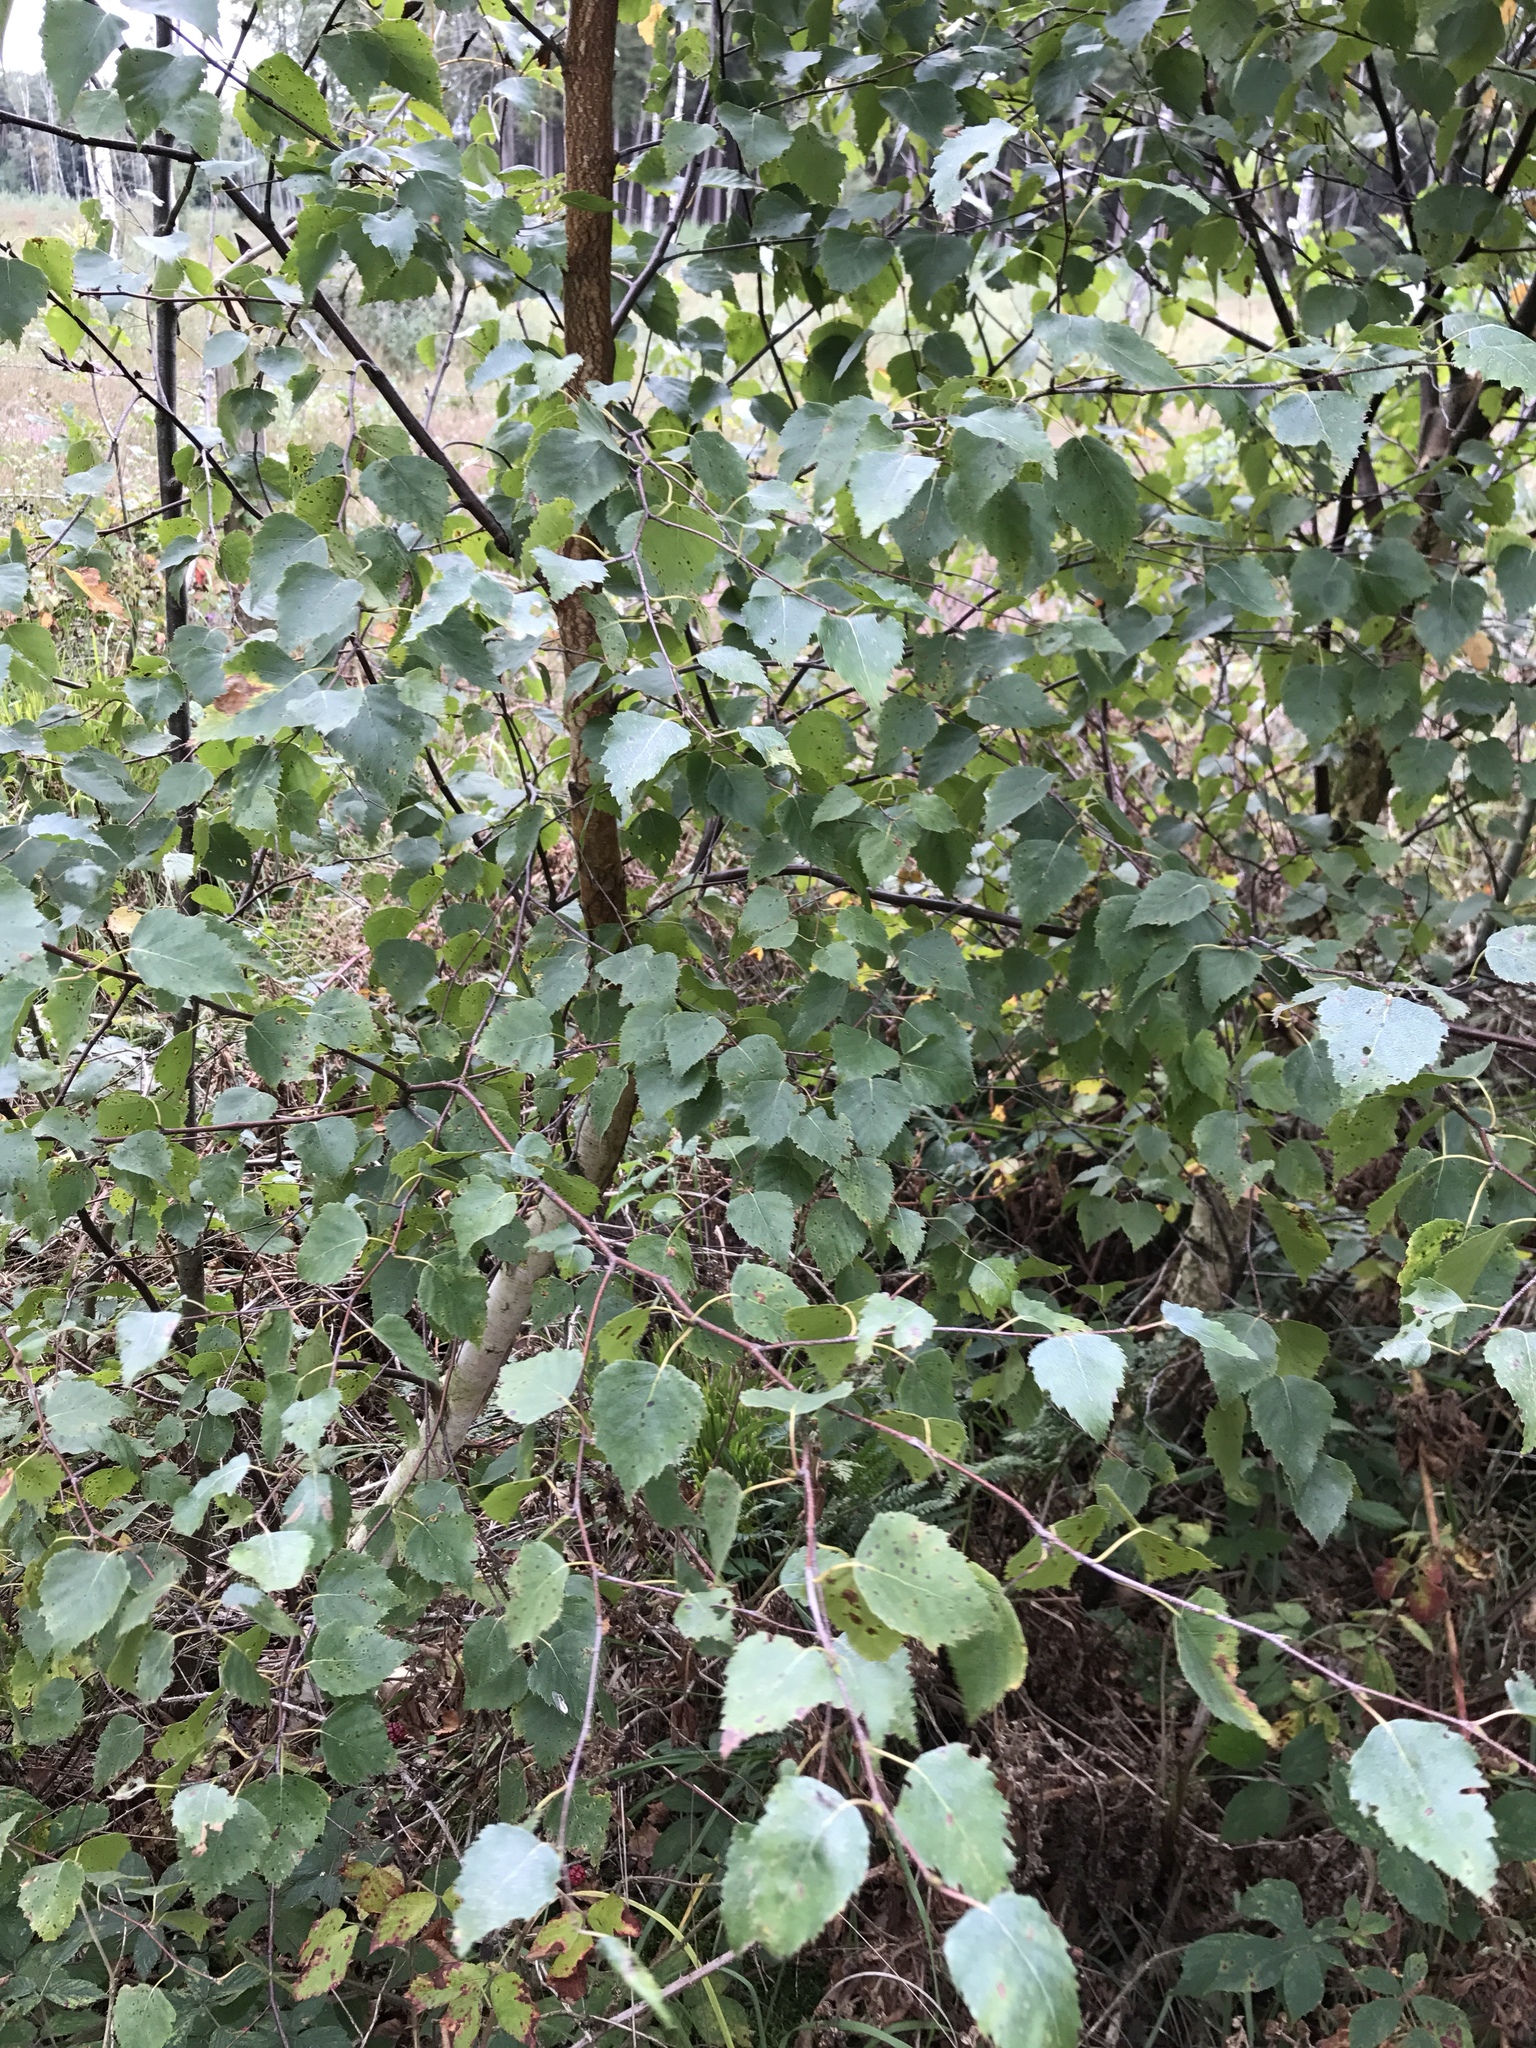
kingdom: Plantae
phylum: Tracheophyta
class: Magnoliopsida
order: Fagales
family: Betulaceae
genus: Betula
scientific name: Betula pendula
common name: Silver birch
